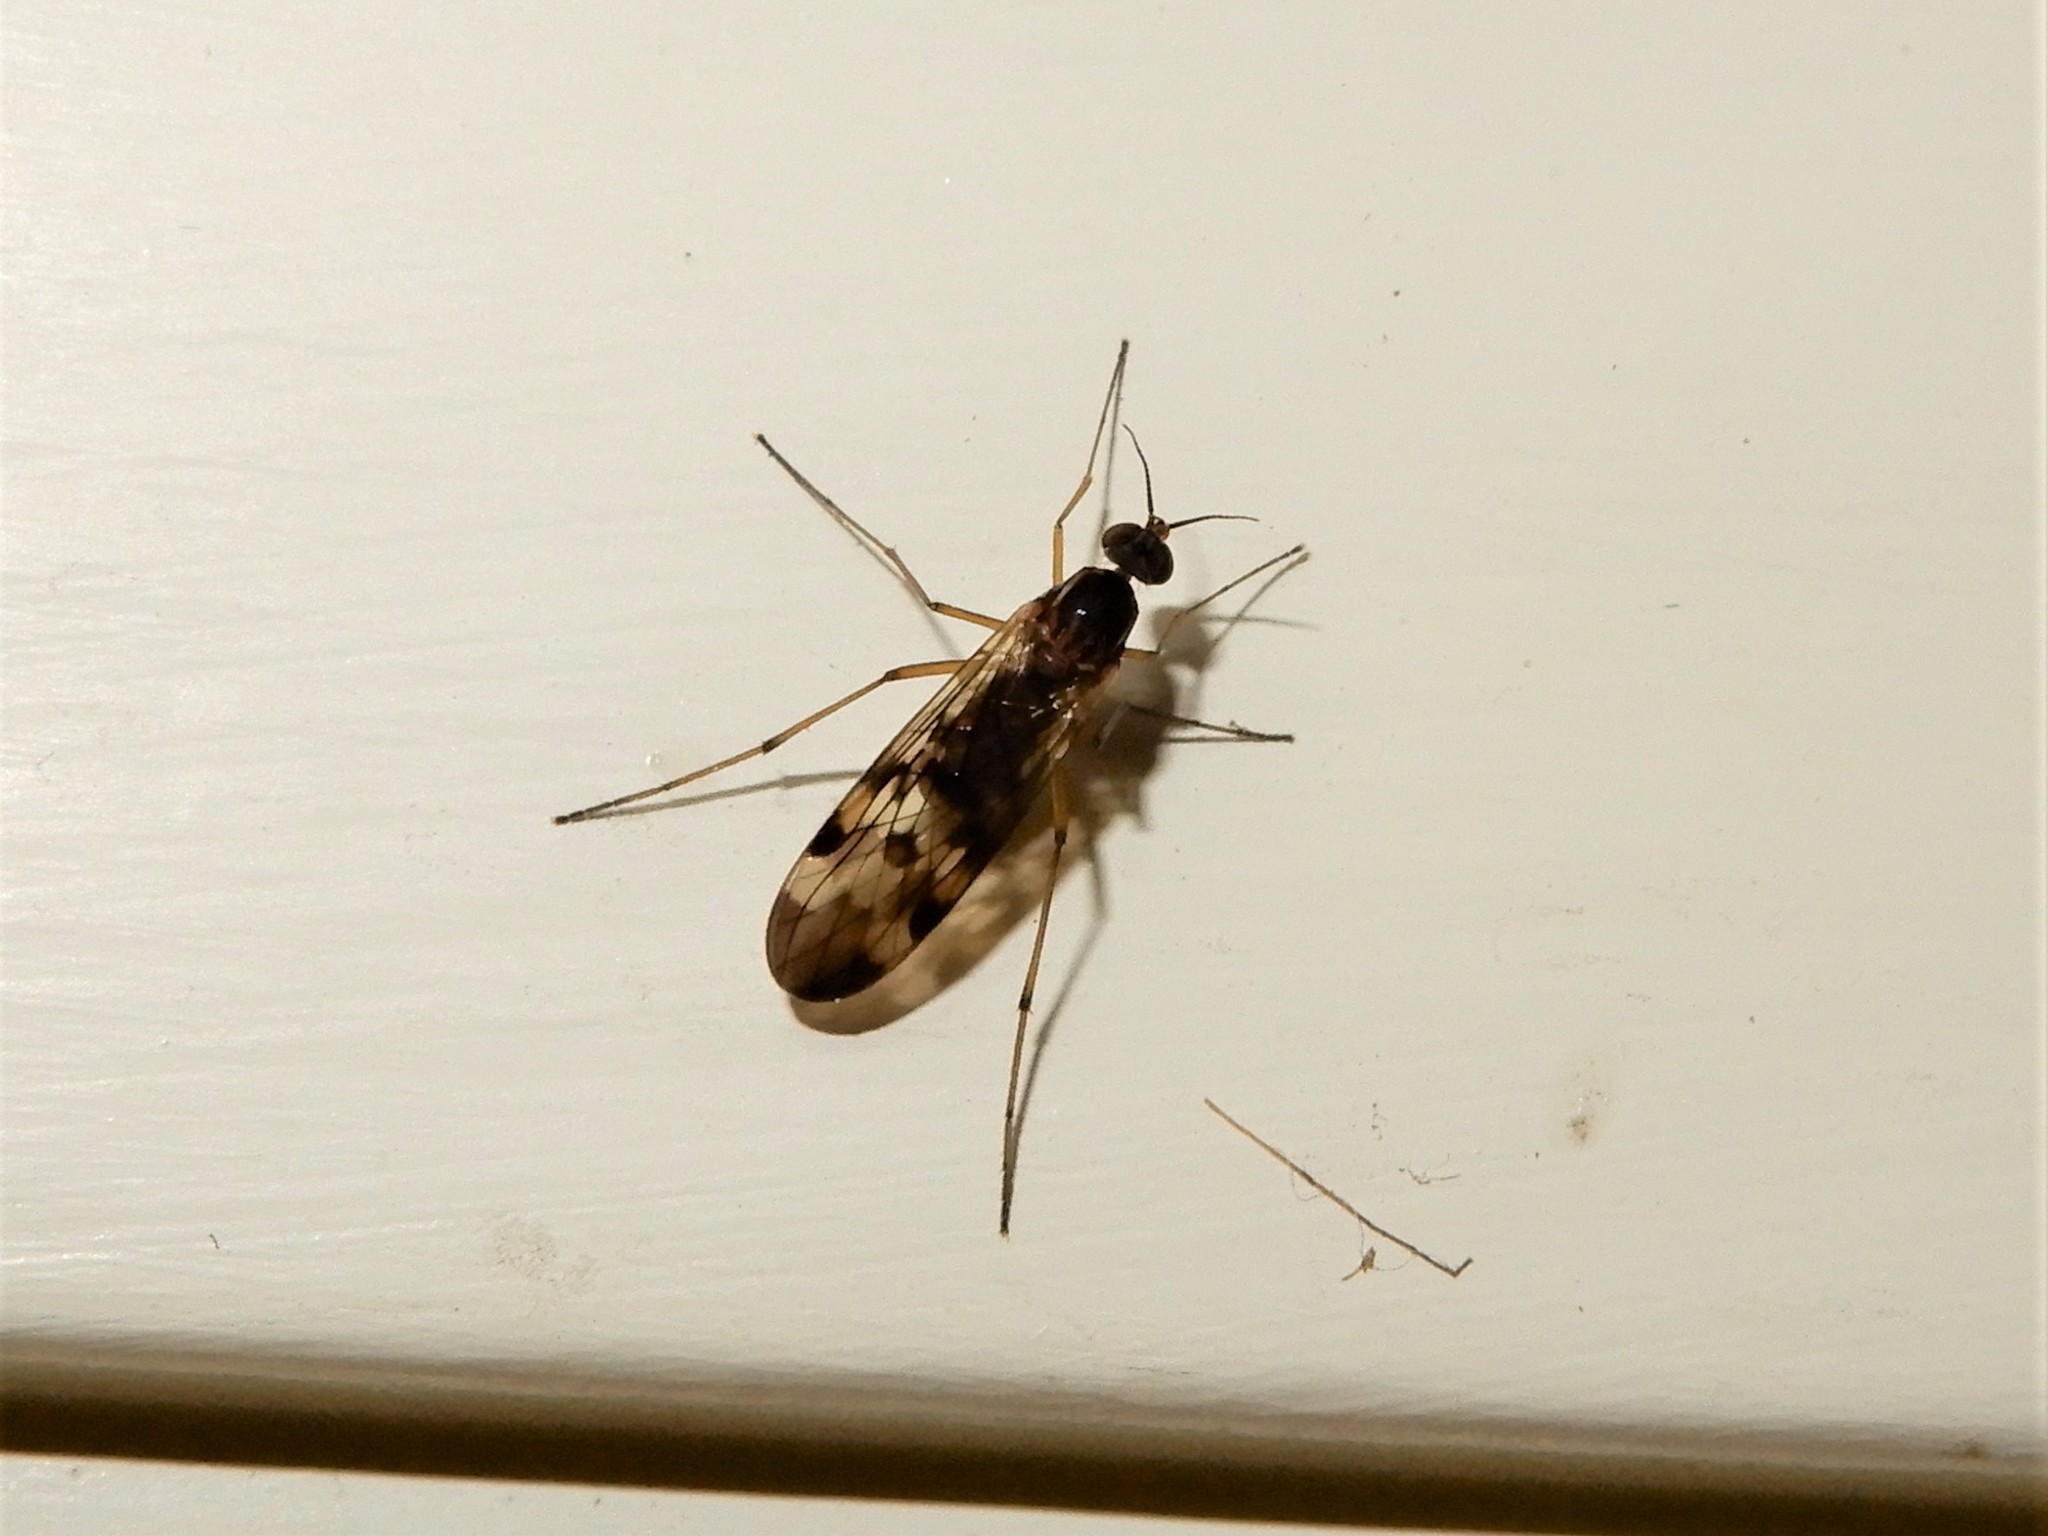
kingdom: Animalia
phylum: Arthropoda
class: Insecta
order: Diptera
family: Anisopodidae
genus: Sylvicola
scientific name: Sylvicola undulatus
